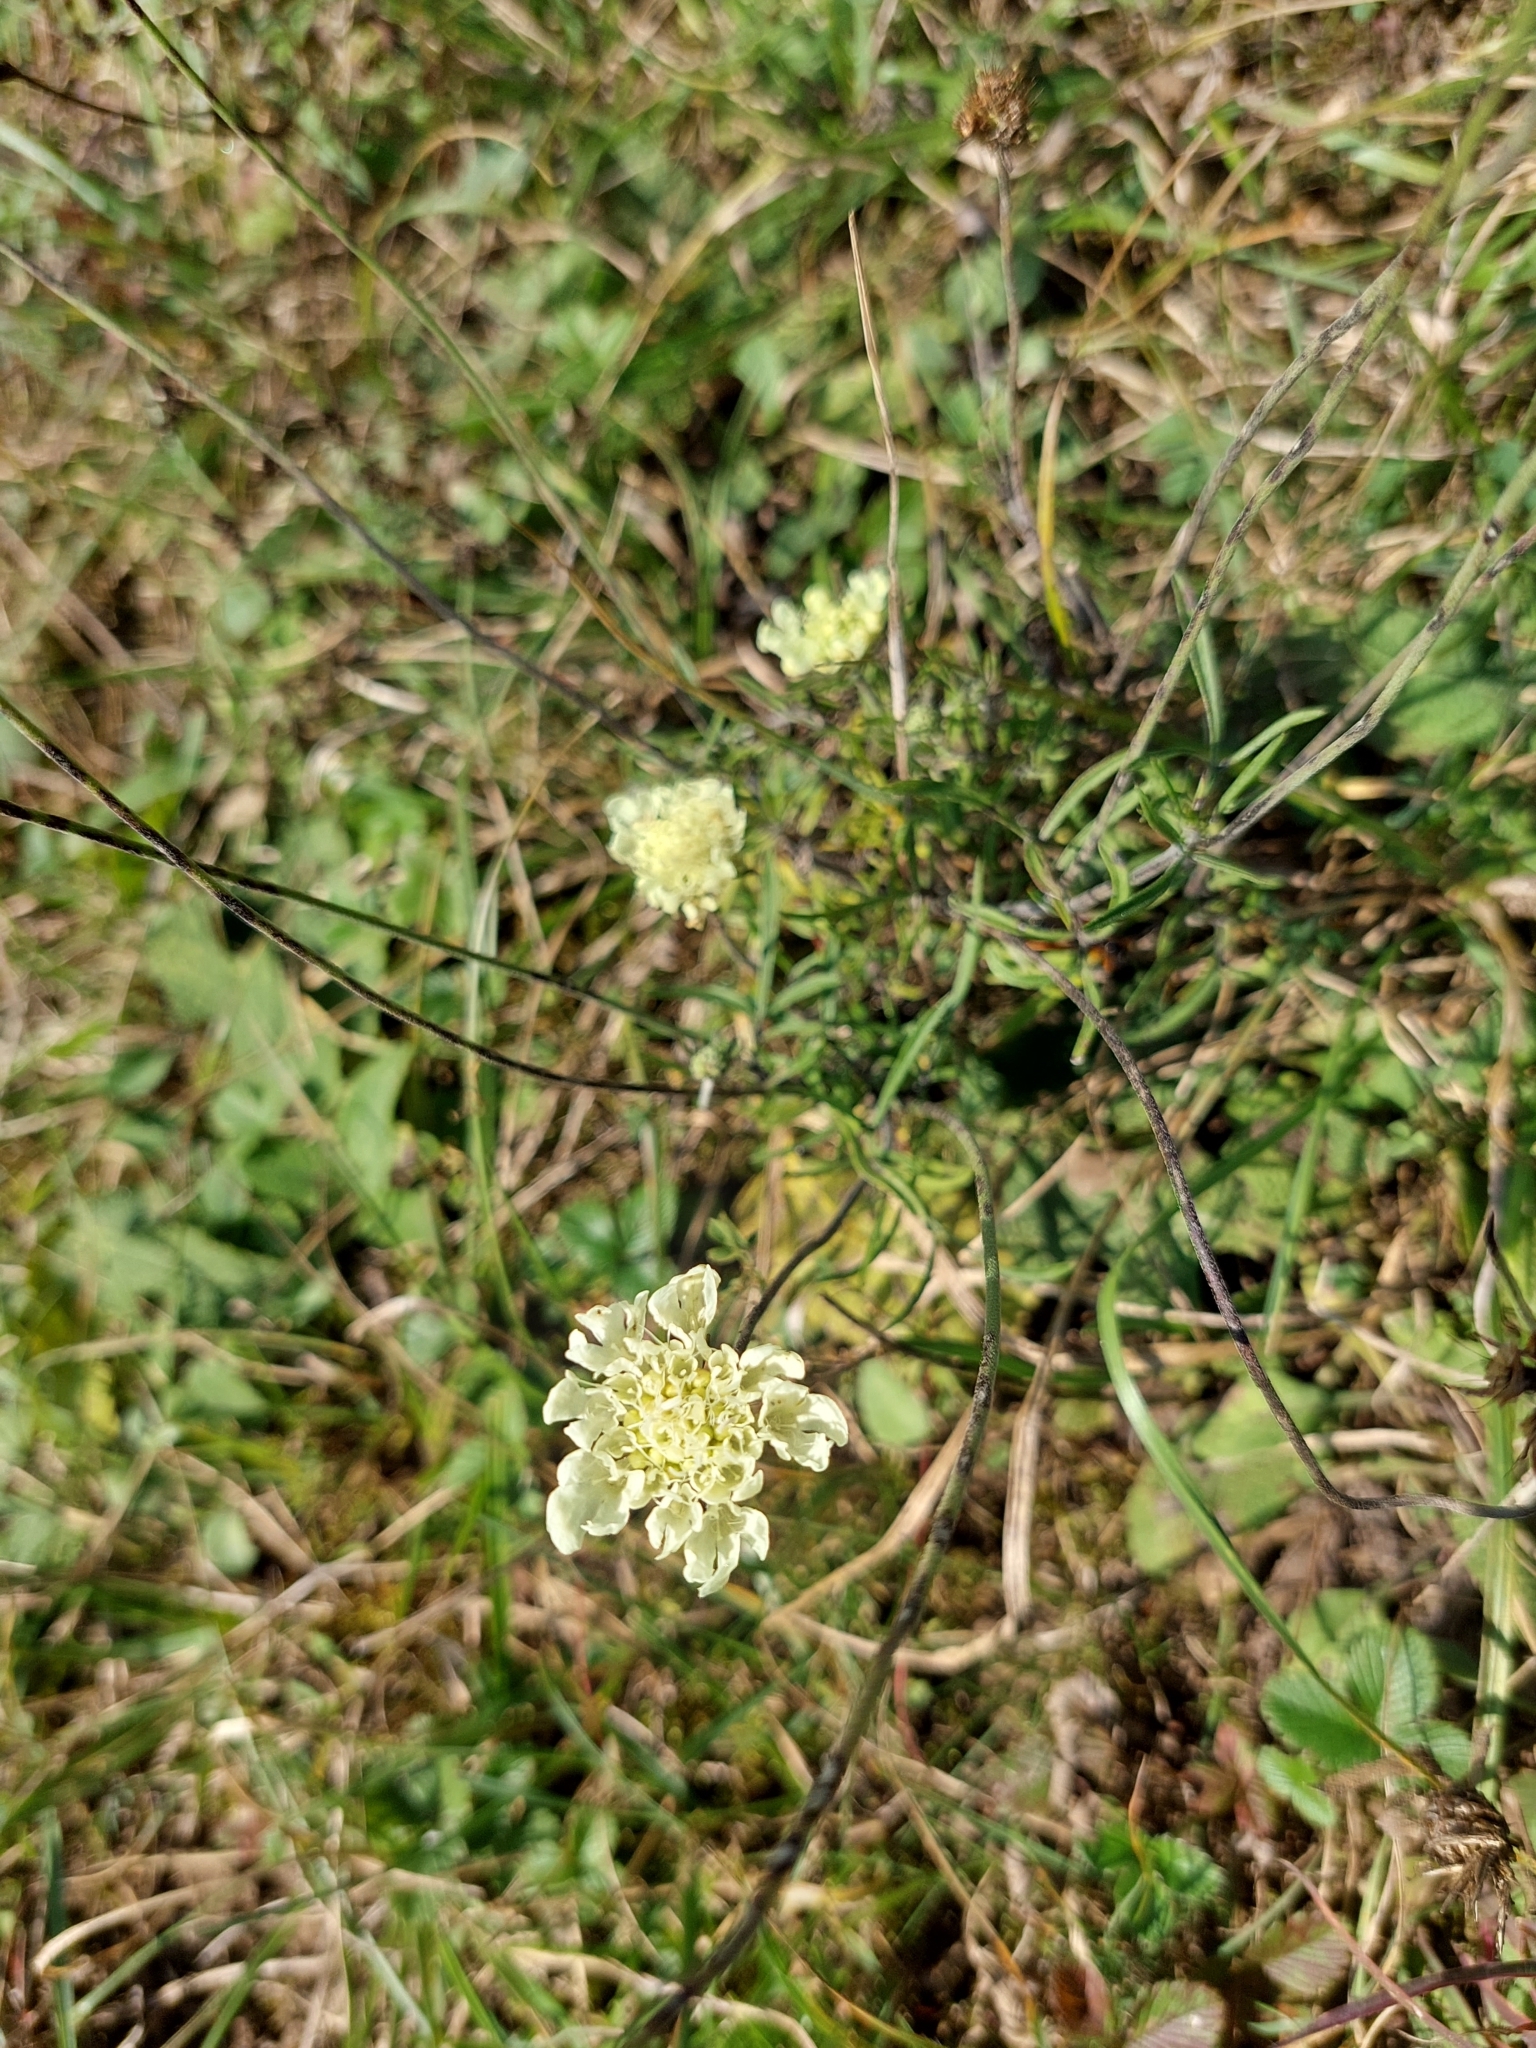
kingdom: Plantae
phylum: Tracheophyta
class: Magnoliopsida
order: Dipsacales
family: Caprifoliaceae
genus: Scabiosa
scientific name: Scabiosa ochroleuca
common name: Cream pincushions
